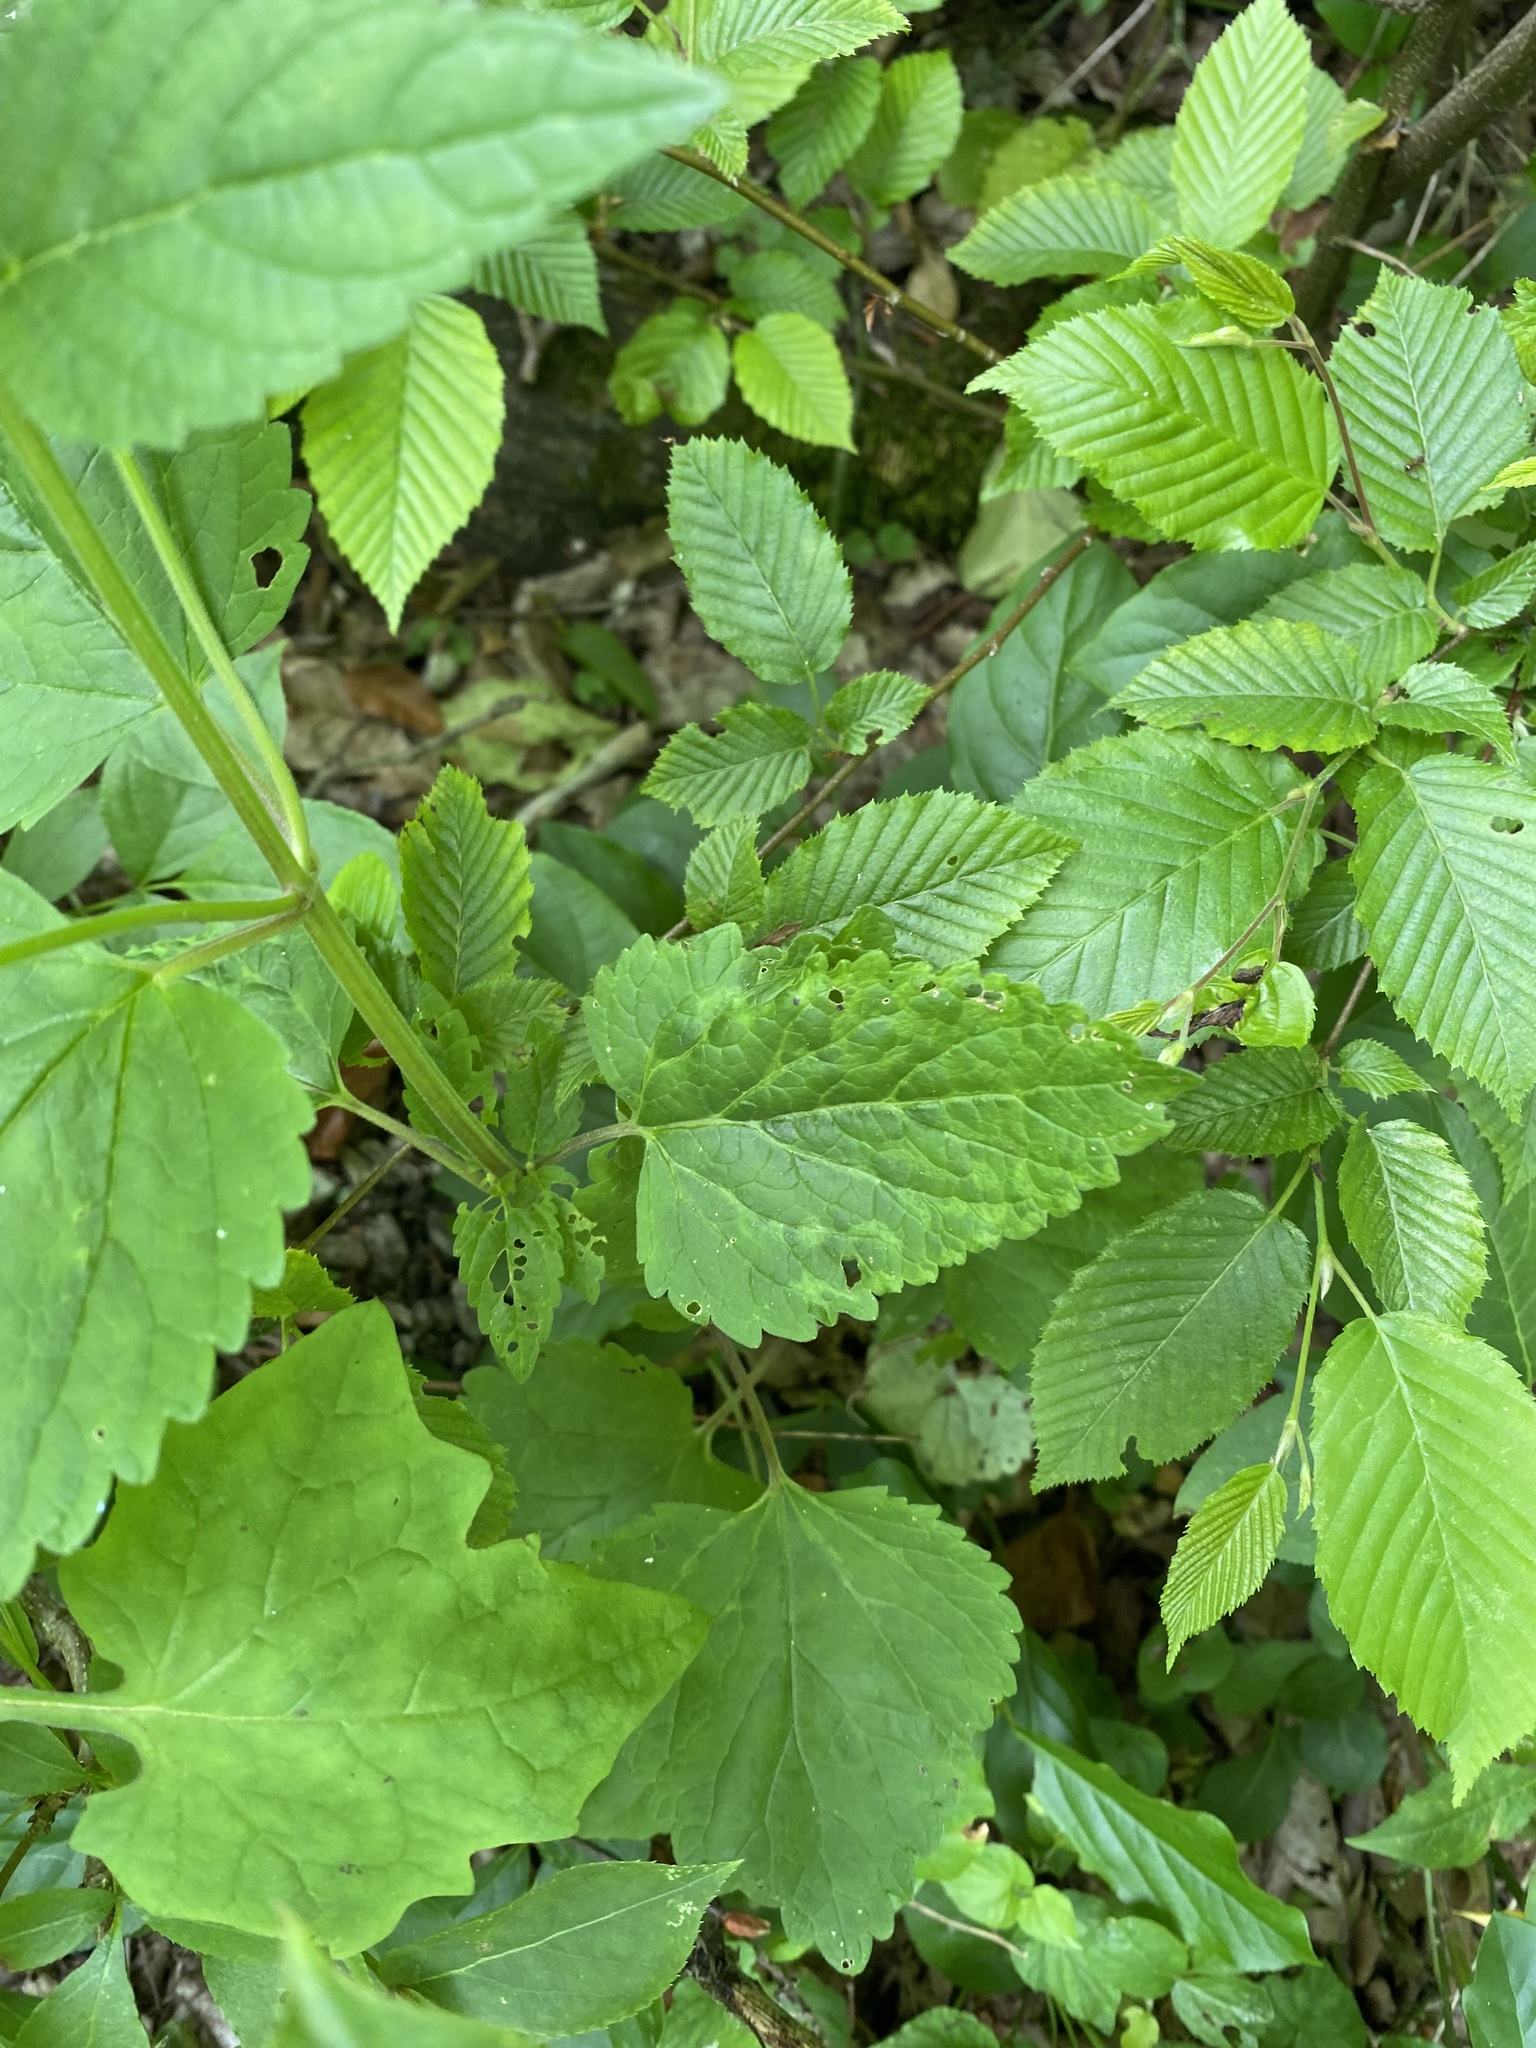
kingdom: Plantae
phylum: Tracheophyta
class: Magnoliopsida
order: Lamiales
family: Lamiaceae
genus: Scutellaria
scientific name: Scutellaria altissima
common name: Somerset skullcap
